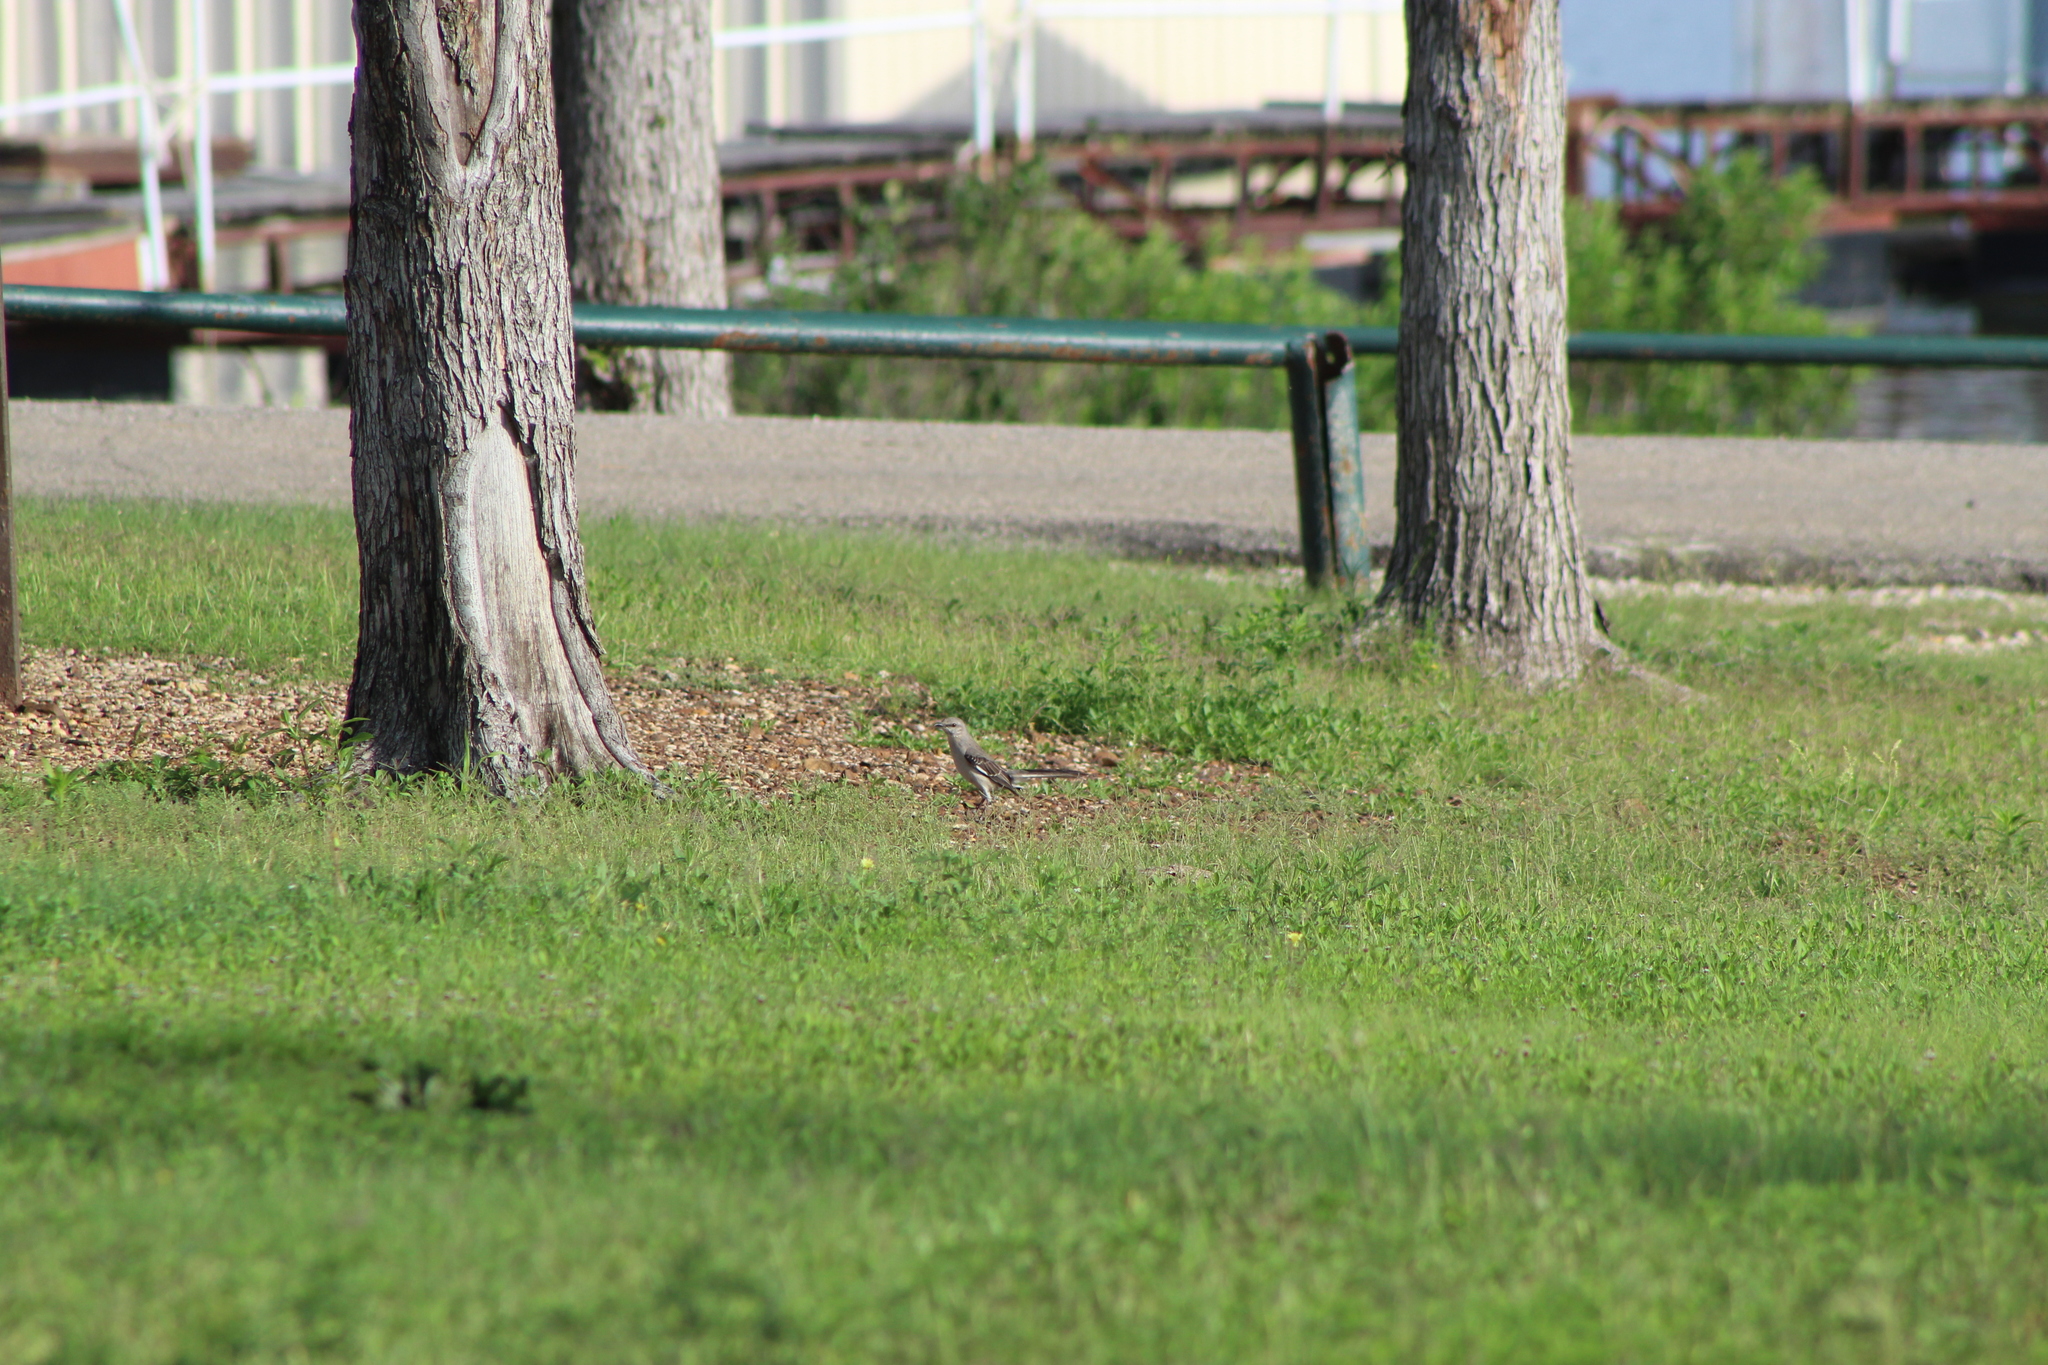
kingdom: Animalia
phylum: Chordata
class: Aves
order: Passeriformes
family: Mimidae
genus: Mimus
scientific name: Mimus polyglottos
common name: Northern mockingbird
